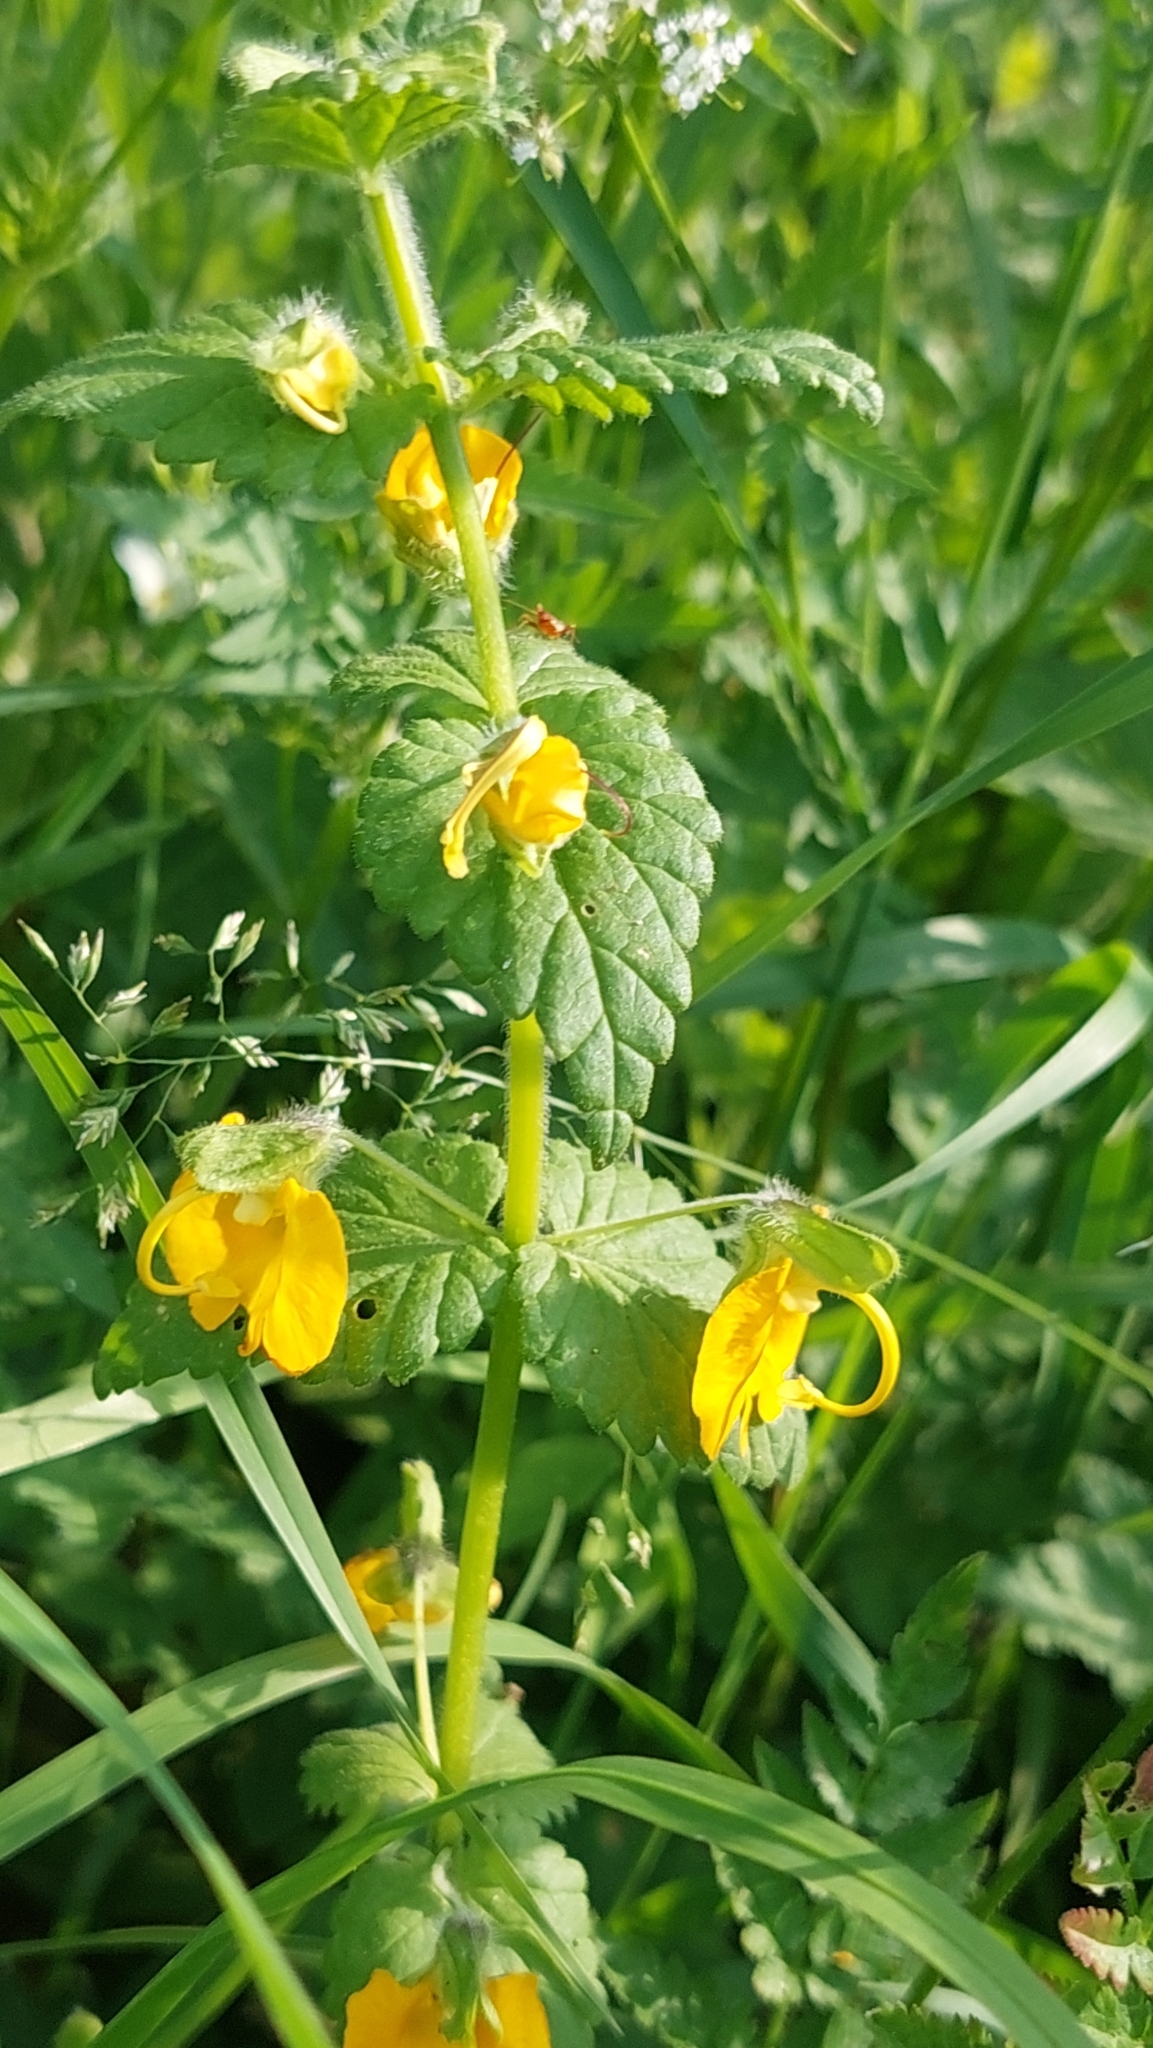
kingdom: Plantae
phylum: Tracheophyta
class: Magnoliopsida
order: Lamiales
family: Orobanchaceae
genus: Rhynchocorys
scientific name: Rhynchocorys orientalis
